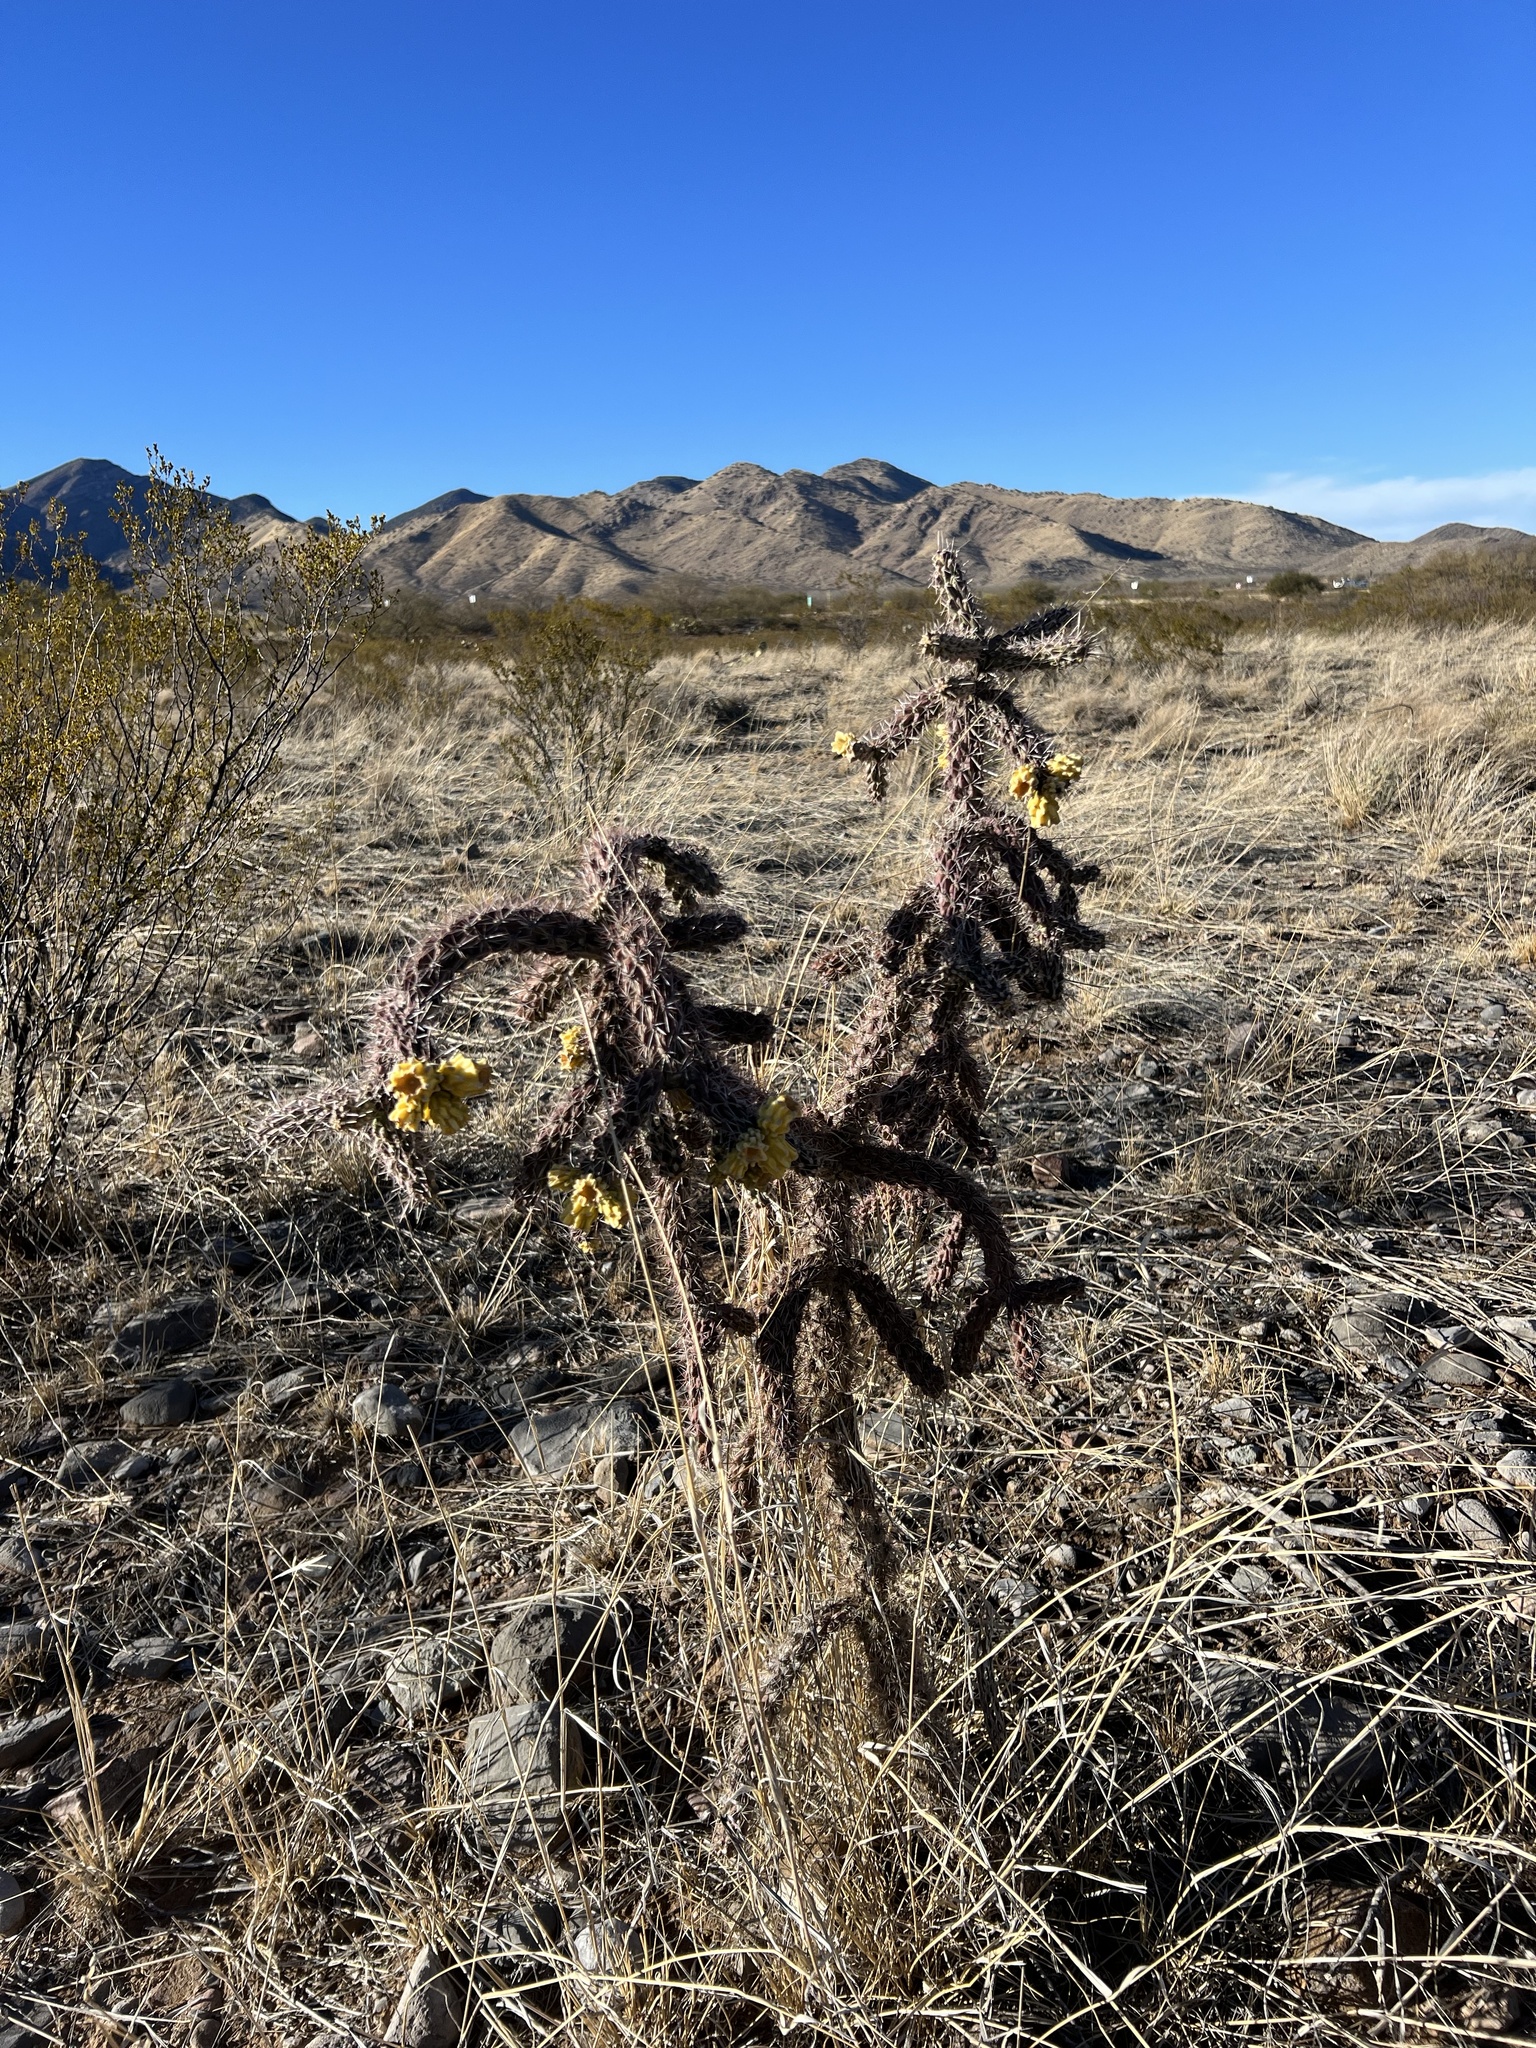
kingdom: Plantae
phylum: Tracheophyta
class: Magnoliopsida
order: Caryophyllales
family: Cactaceae
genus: Cylindropuntia
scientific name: Cylindropuntia imbricata
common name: Candelabrum cactus
